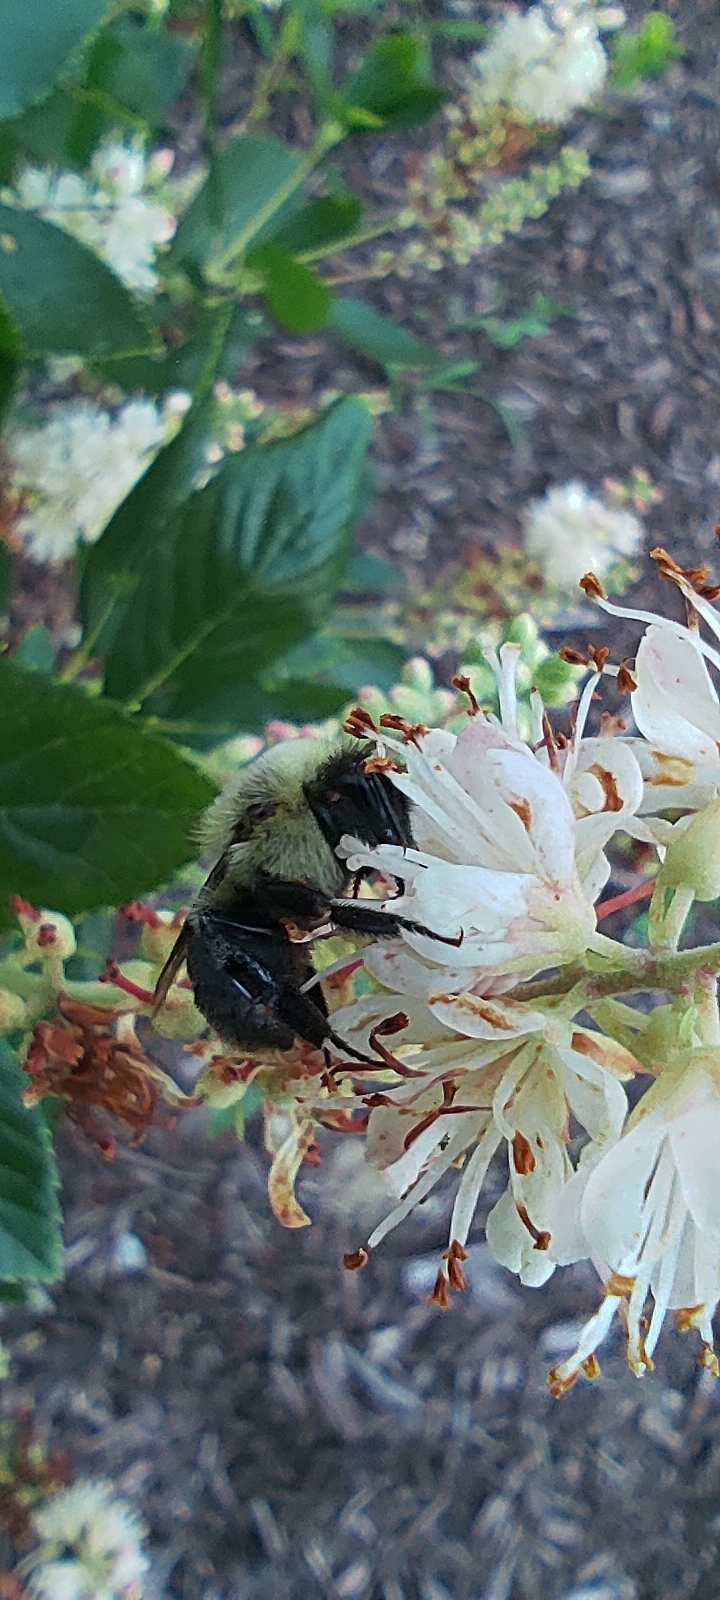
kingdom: Animalia
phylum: Arthropoda
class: Insecta
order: Hymenoptera
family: Apidae
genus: Bombus
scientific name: Bombus impatiens
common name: Common eastern bumble bee
